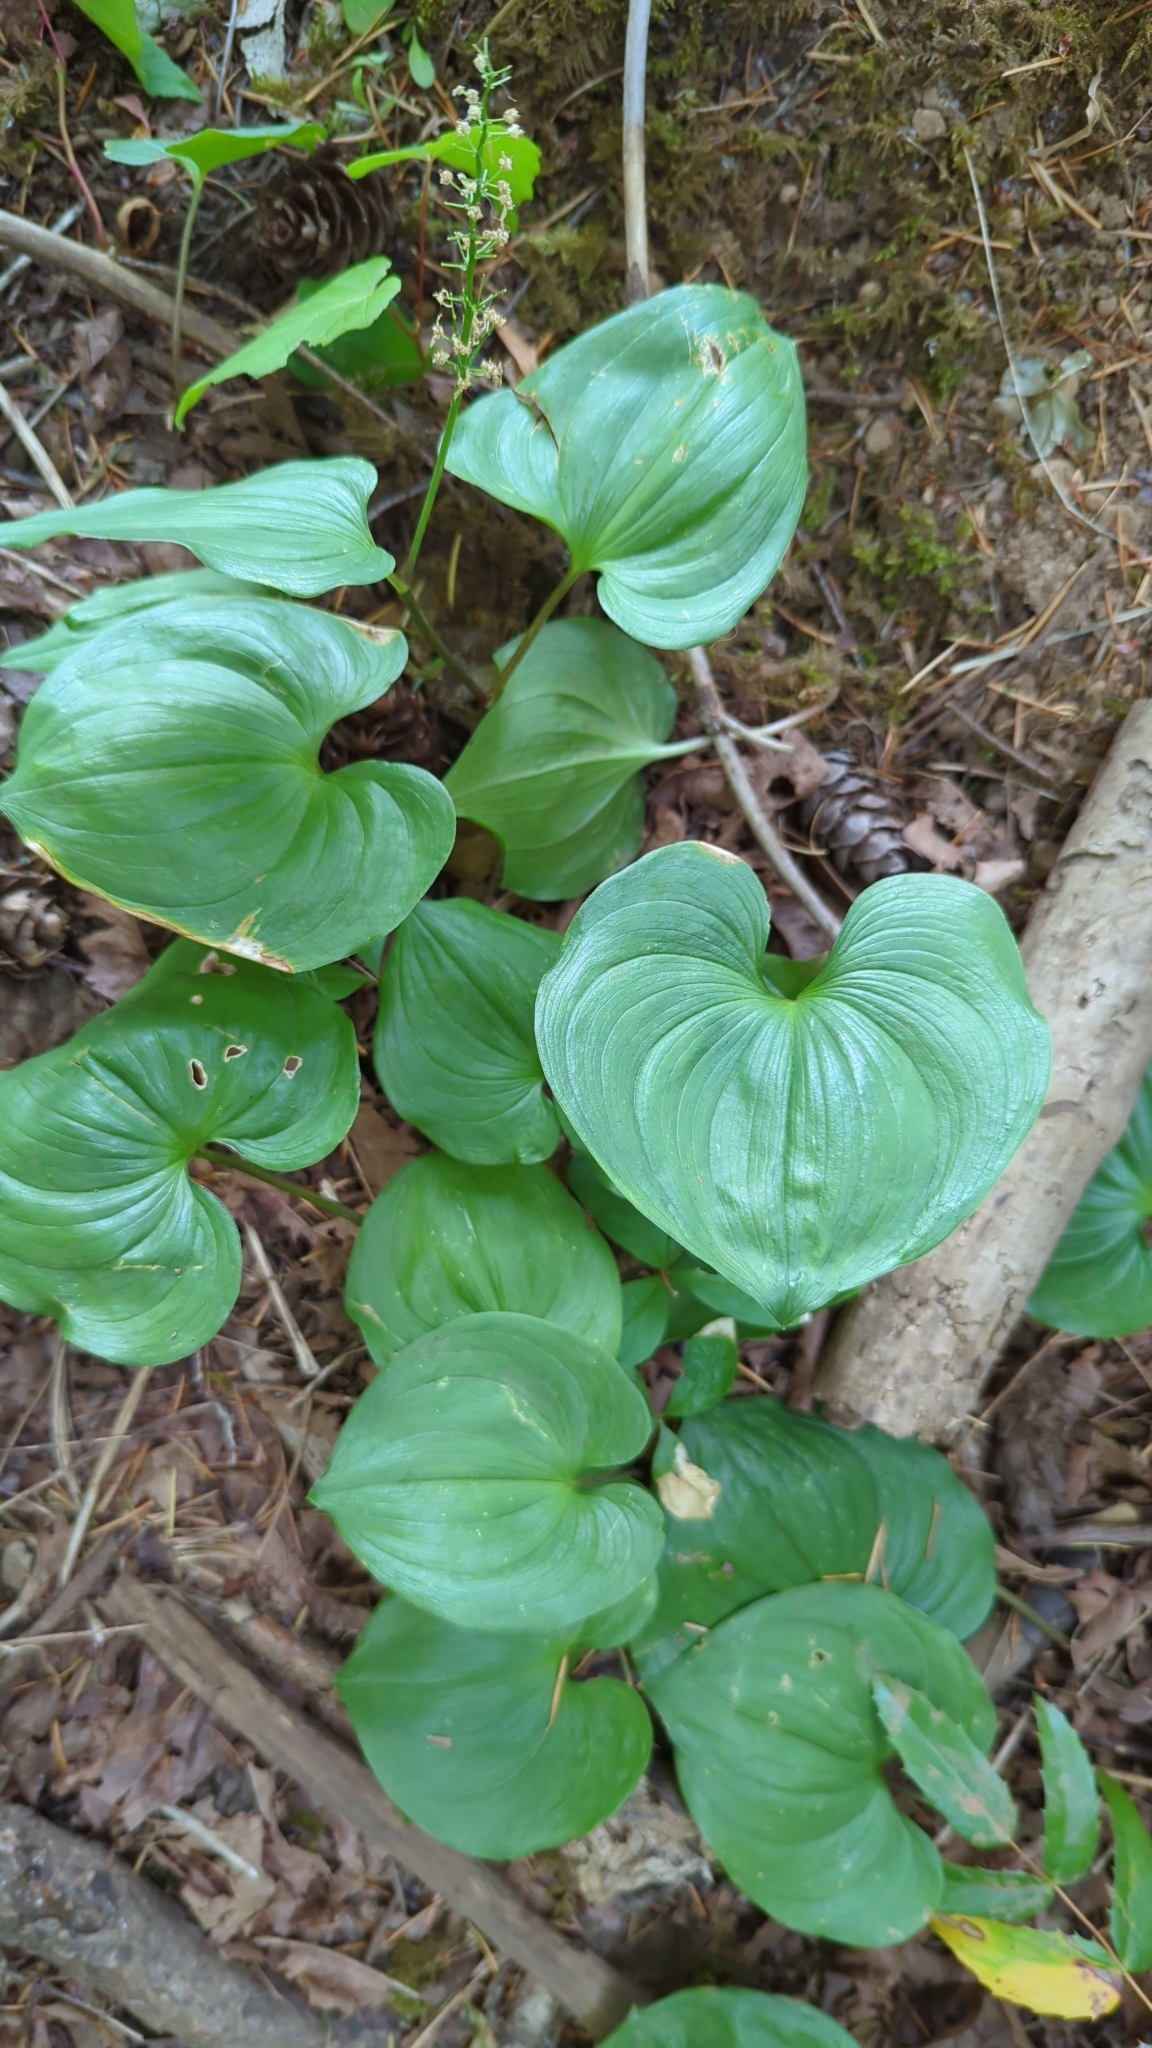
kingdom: Plantae
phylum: Tracheophyta
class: Liliopsida
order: Asparagales
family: Asparagaceae
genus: Maianthemum
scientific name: Maianthemum dilatatum
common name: False lily-of-the-valley
